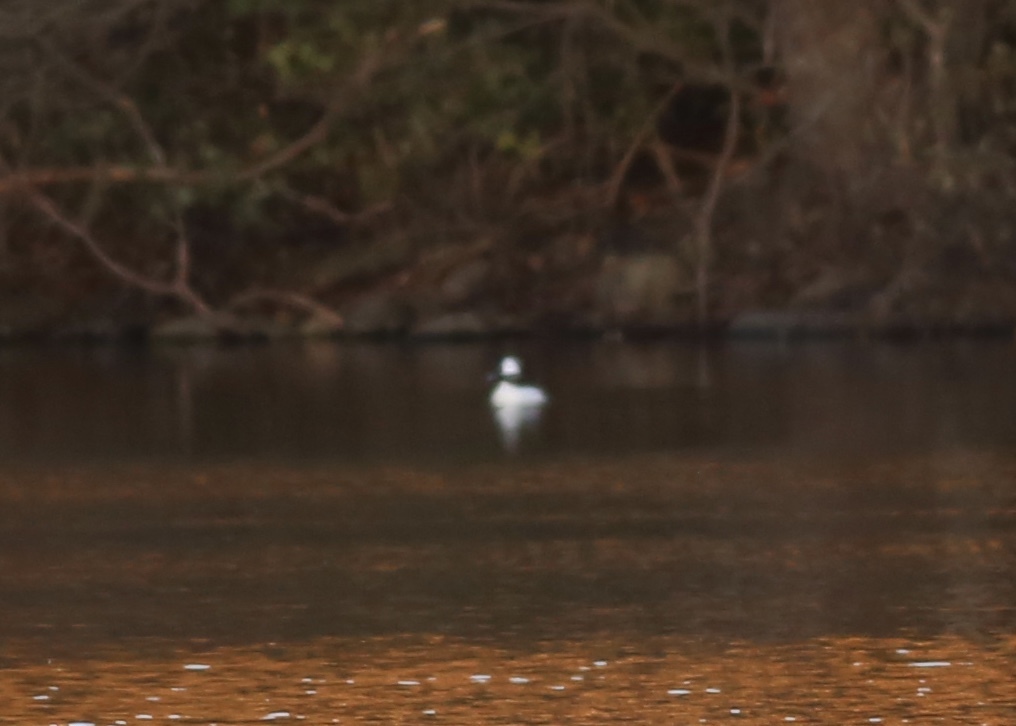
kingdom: Animalia
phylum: Chordata
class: Aves
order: Anseriformes
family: Anatidae
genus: Bucephala
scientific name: Bucephala albeola
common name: Bufflehead
